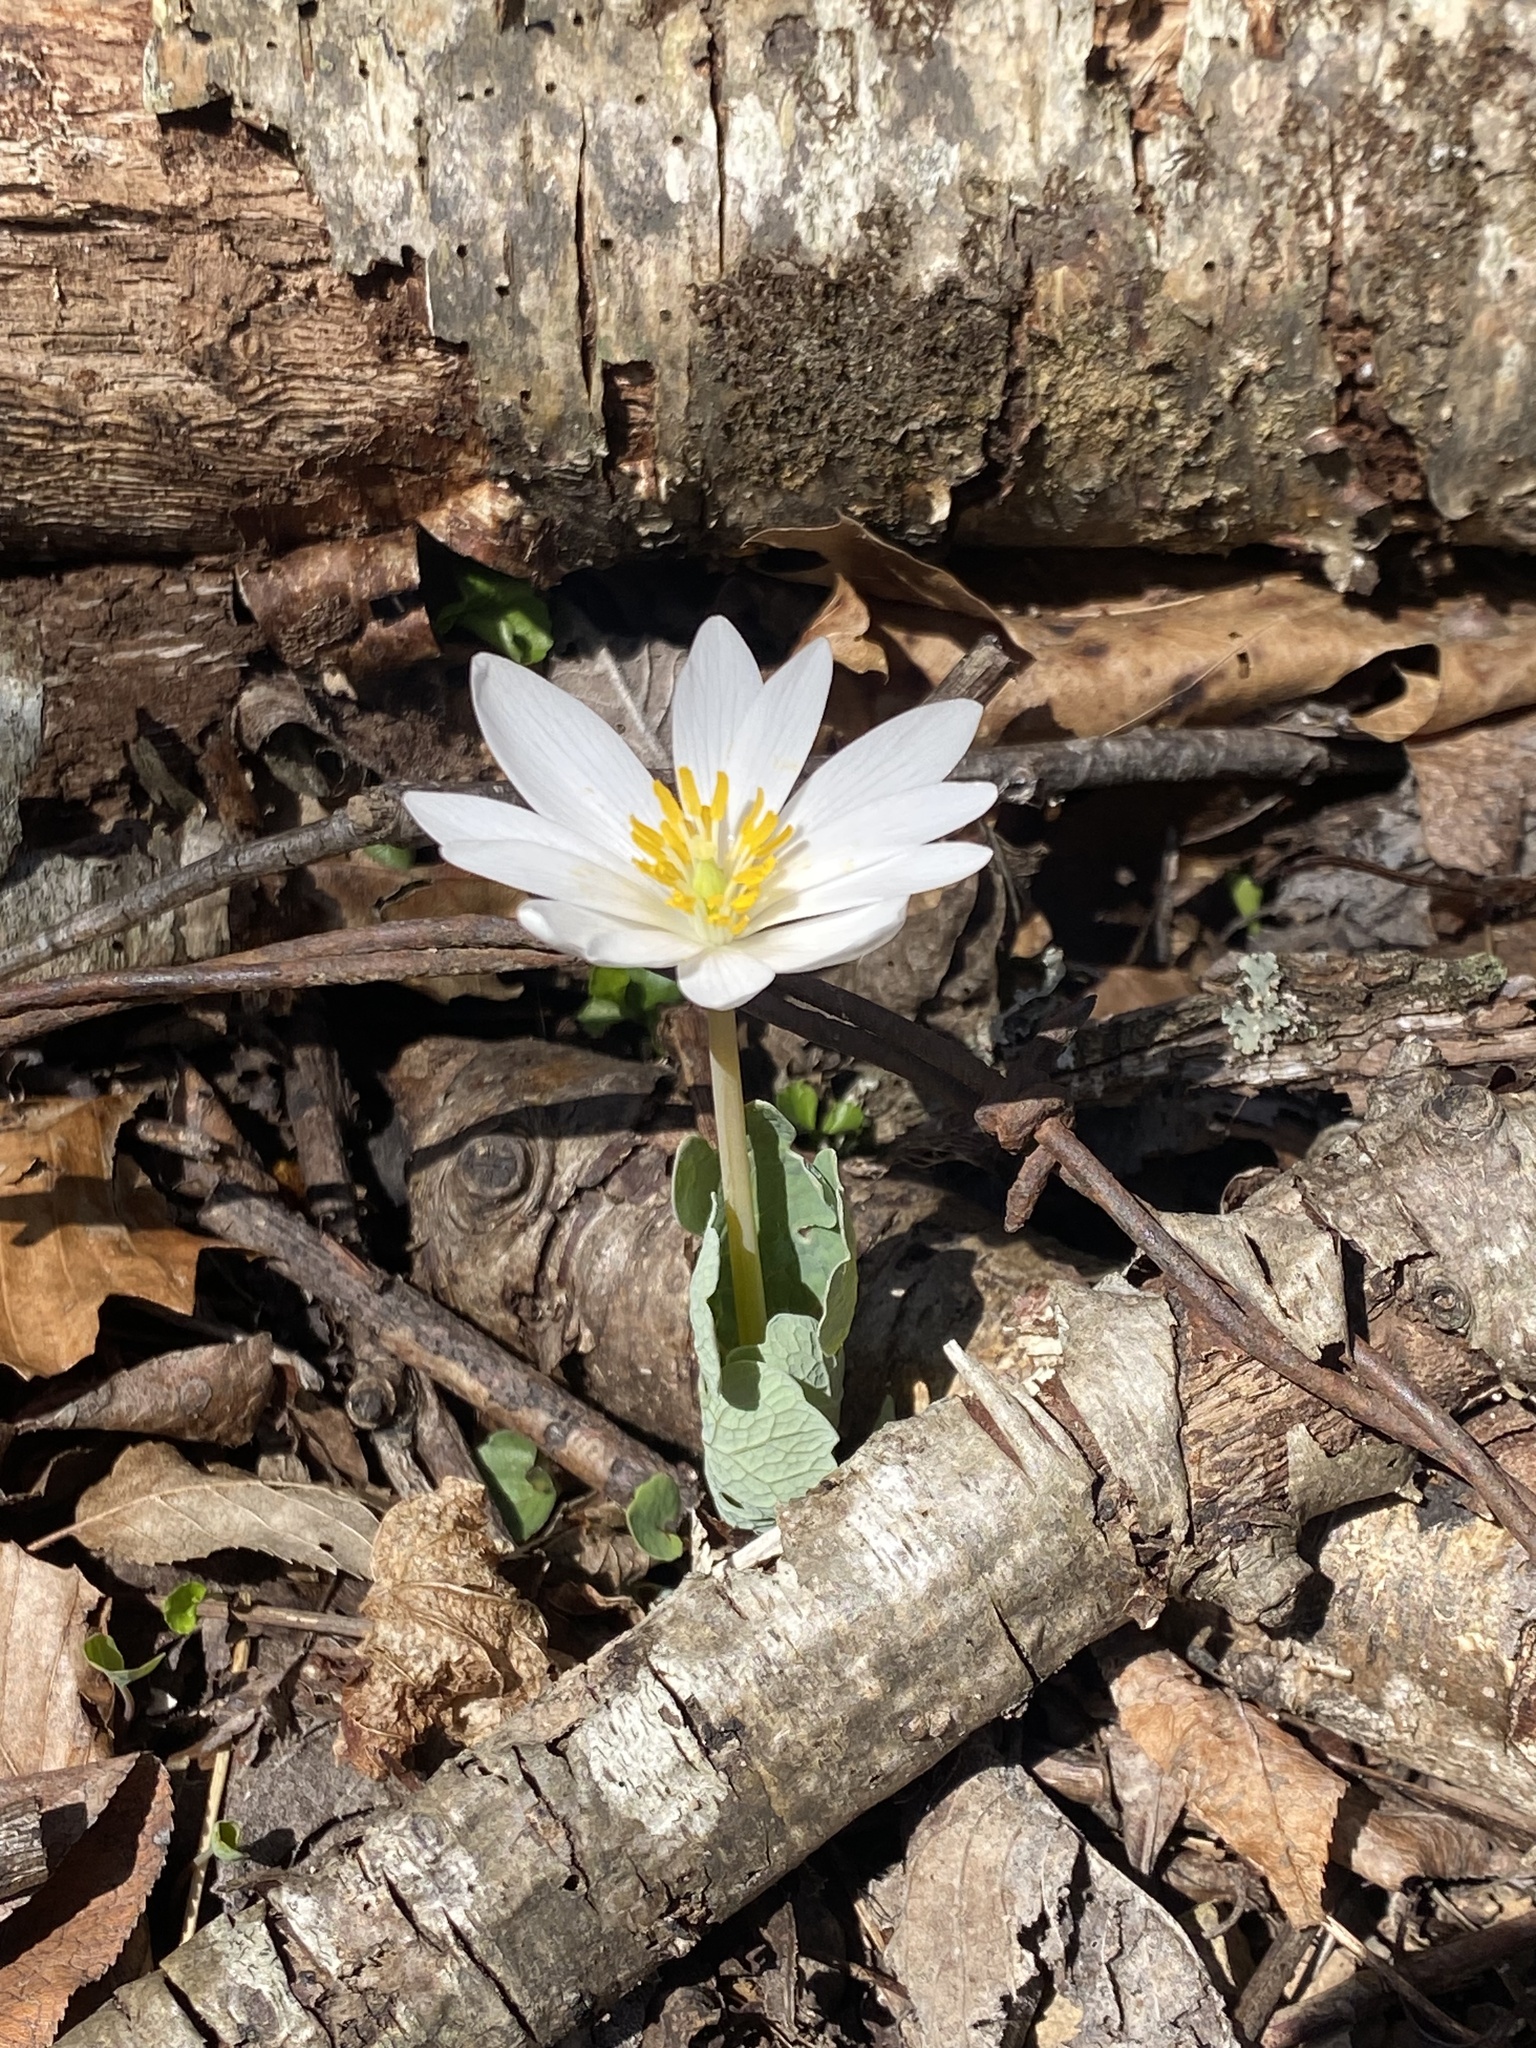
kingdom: Plantae
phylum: Tracheophyta
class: Magnoliopsida
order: Ranunculales
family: Papaveraceae
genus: Sanguinaria
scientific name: Sanguinaria canadensis
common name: Bloodroot
